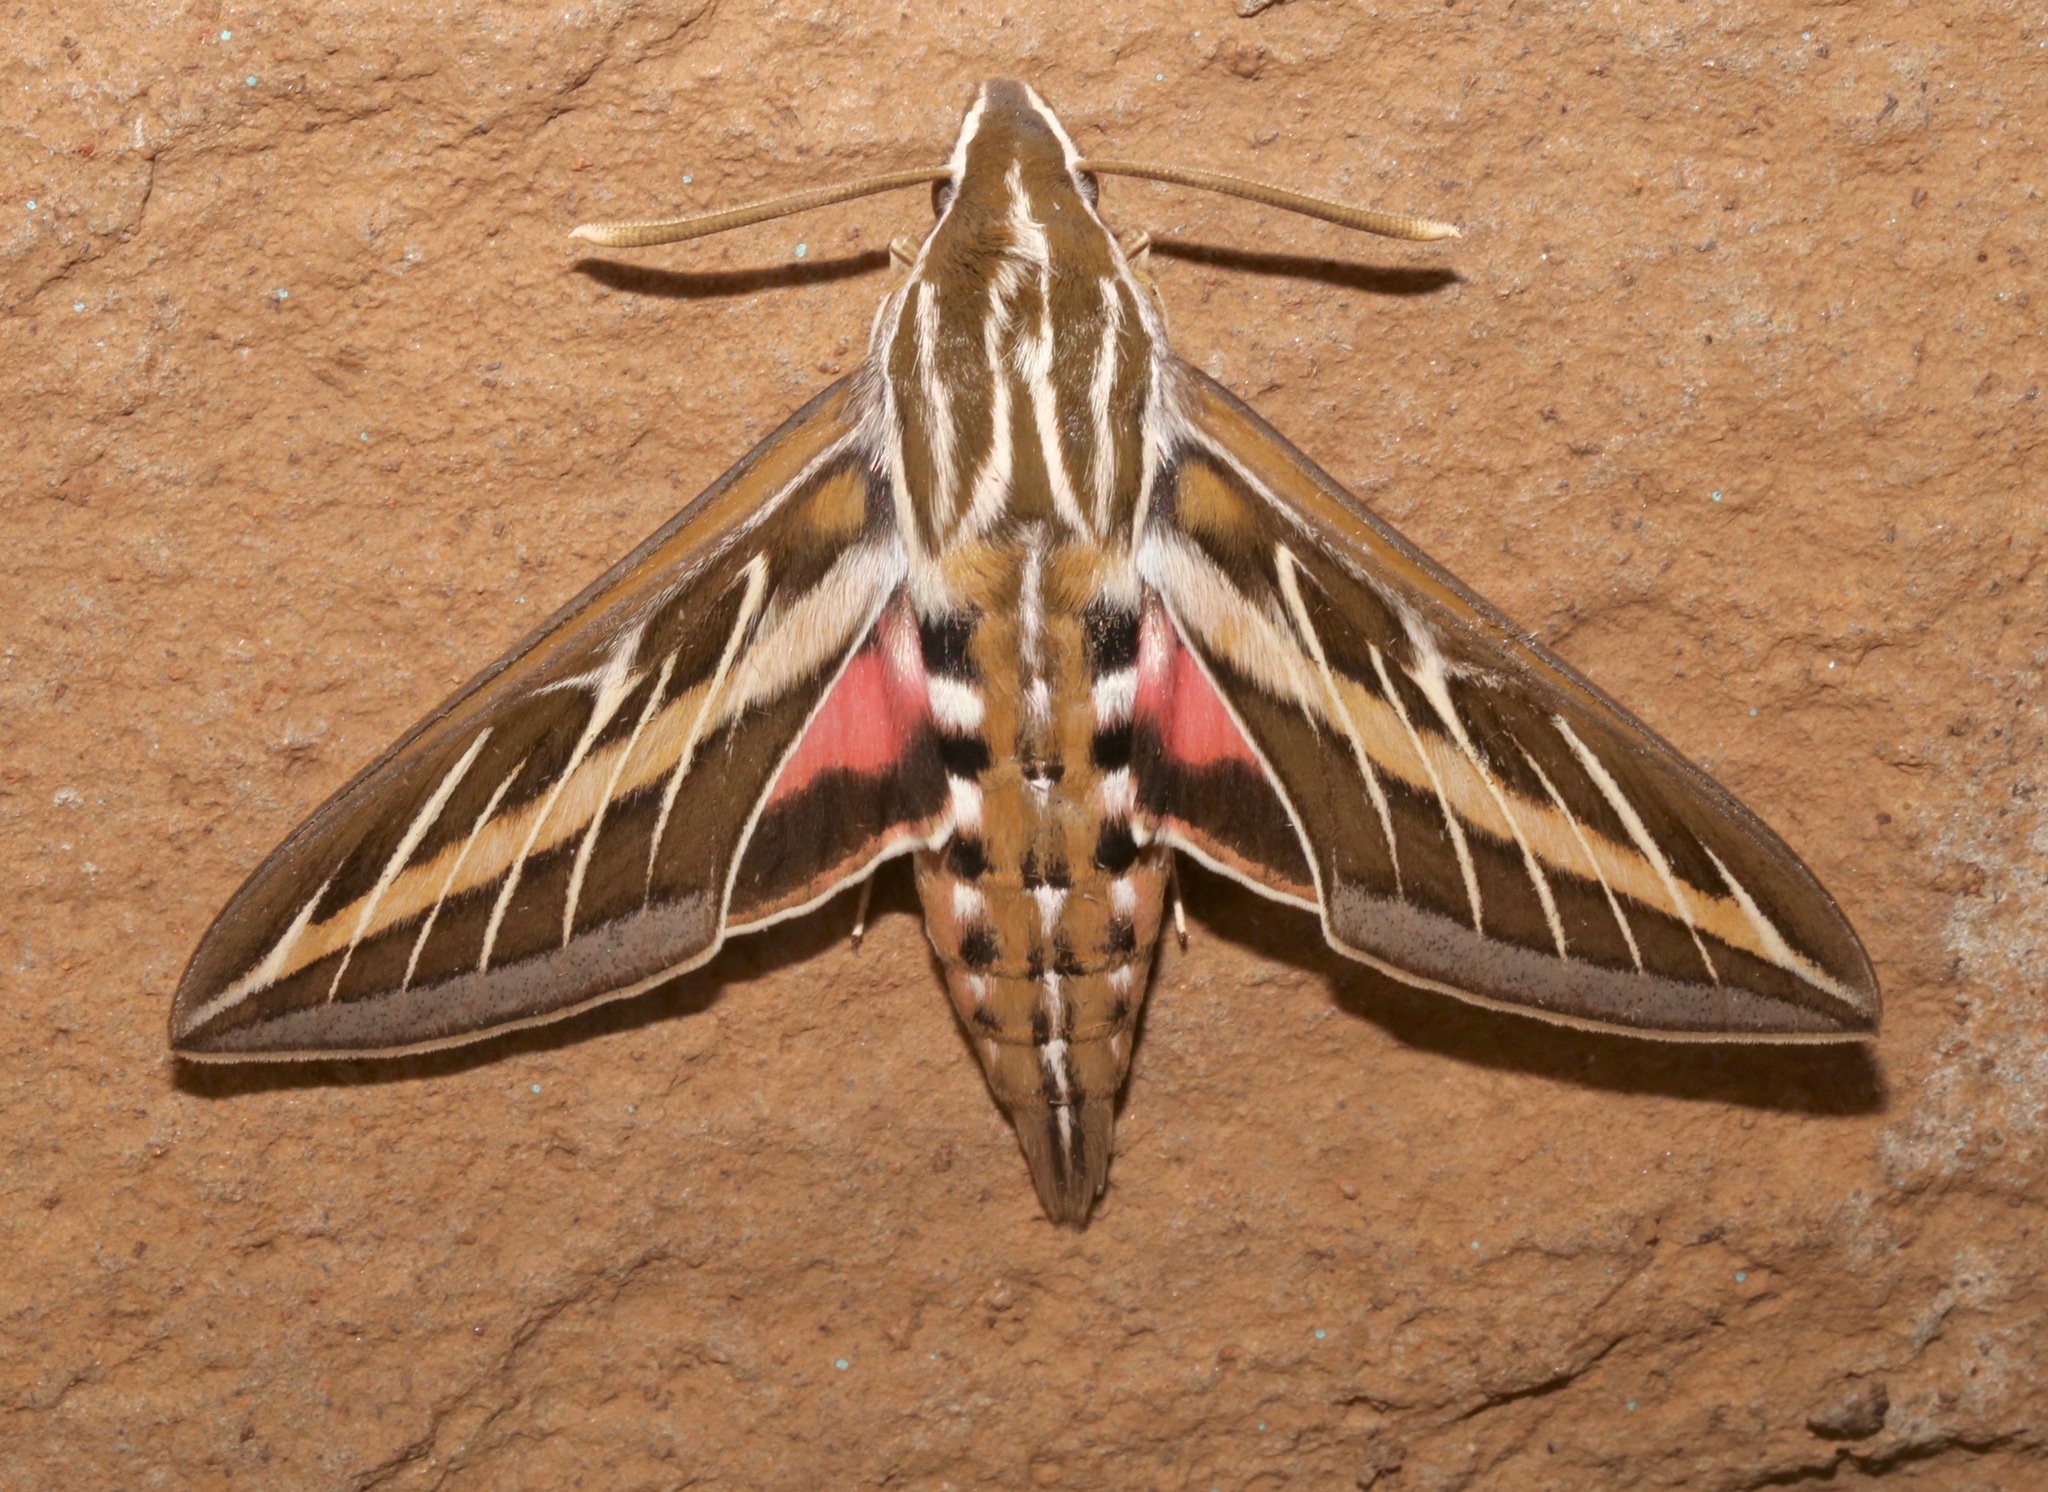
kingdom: Animalia
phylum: Arthropoda
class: Insecta
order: Lepidoptera
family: Sphingidae
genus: Hyles
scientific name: Hyles lineata
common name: White-lined sphinx
